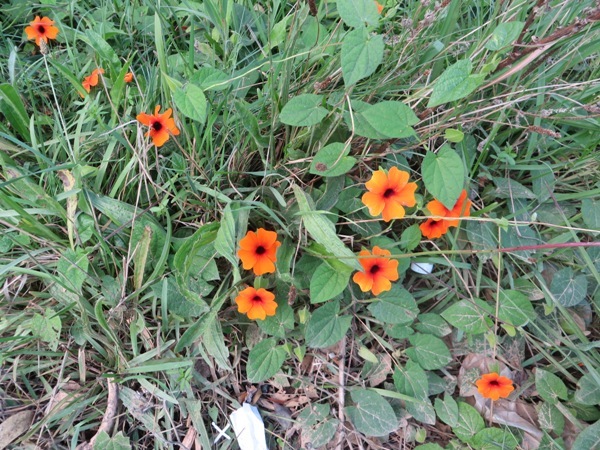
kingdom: Plantae
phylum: Tracheophyta
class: Magnoliopsida
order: Lamiales
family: Acanthaceae
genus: Thunbergia
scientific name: Thunbergia alata
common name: Blackeyed susan vine
